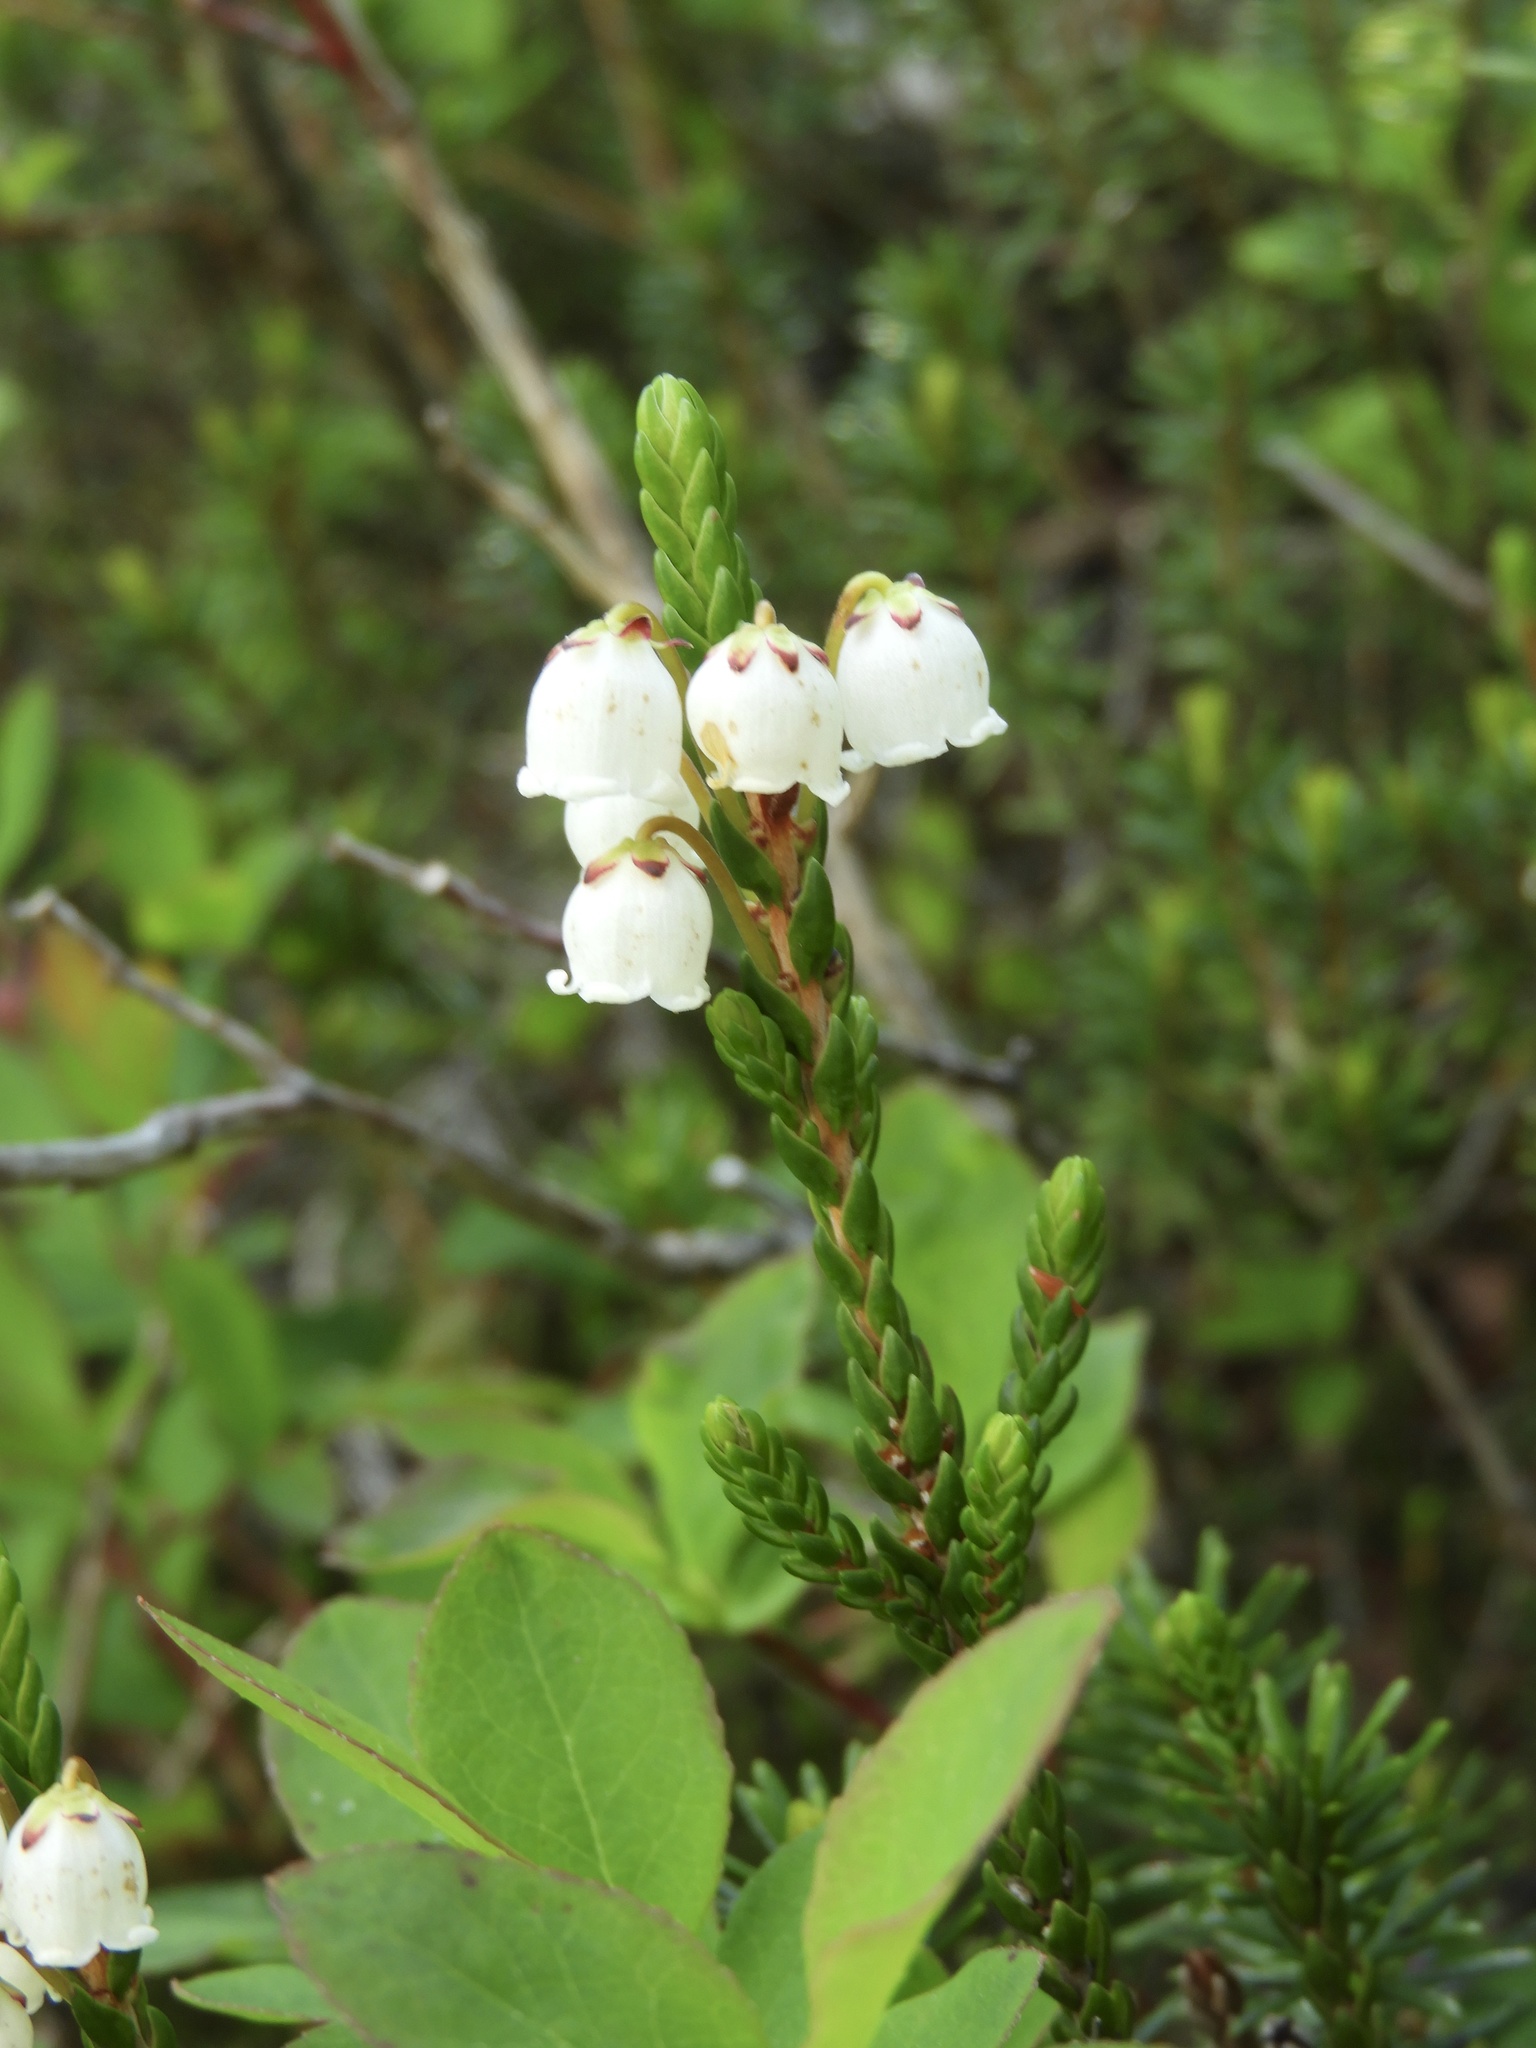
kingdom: Plantae
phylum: Tracheophyta
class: Magnoliopsida
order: Ericales
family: Ericaceae
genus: Cassiope
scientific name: Cassiope mertensiana
